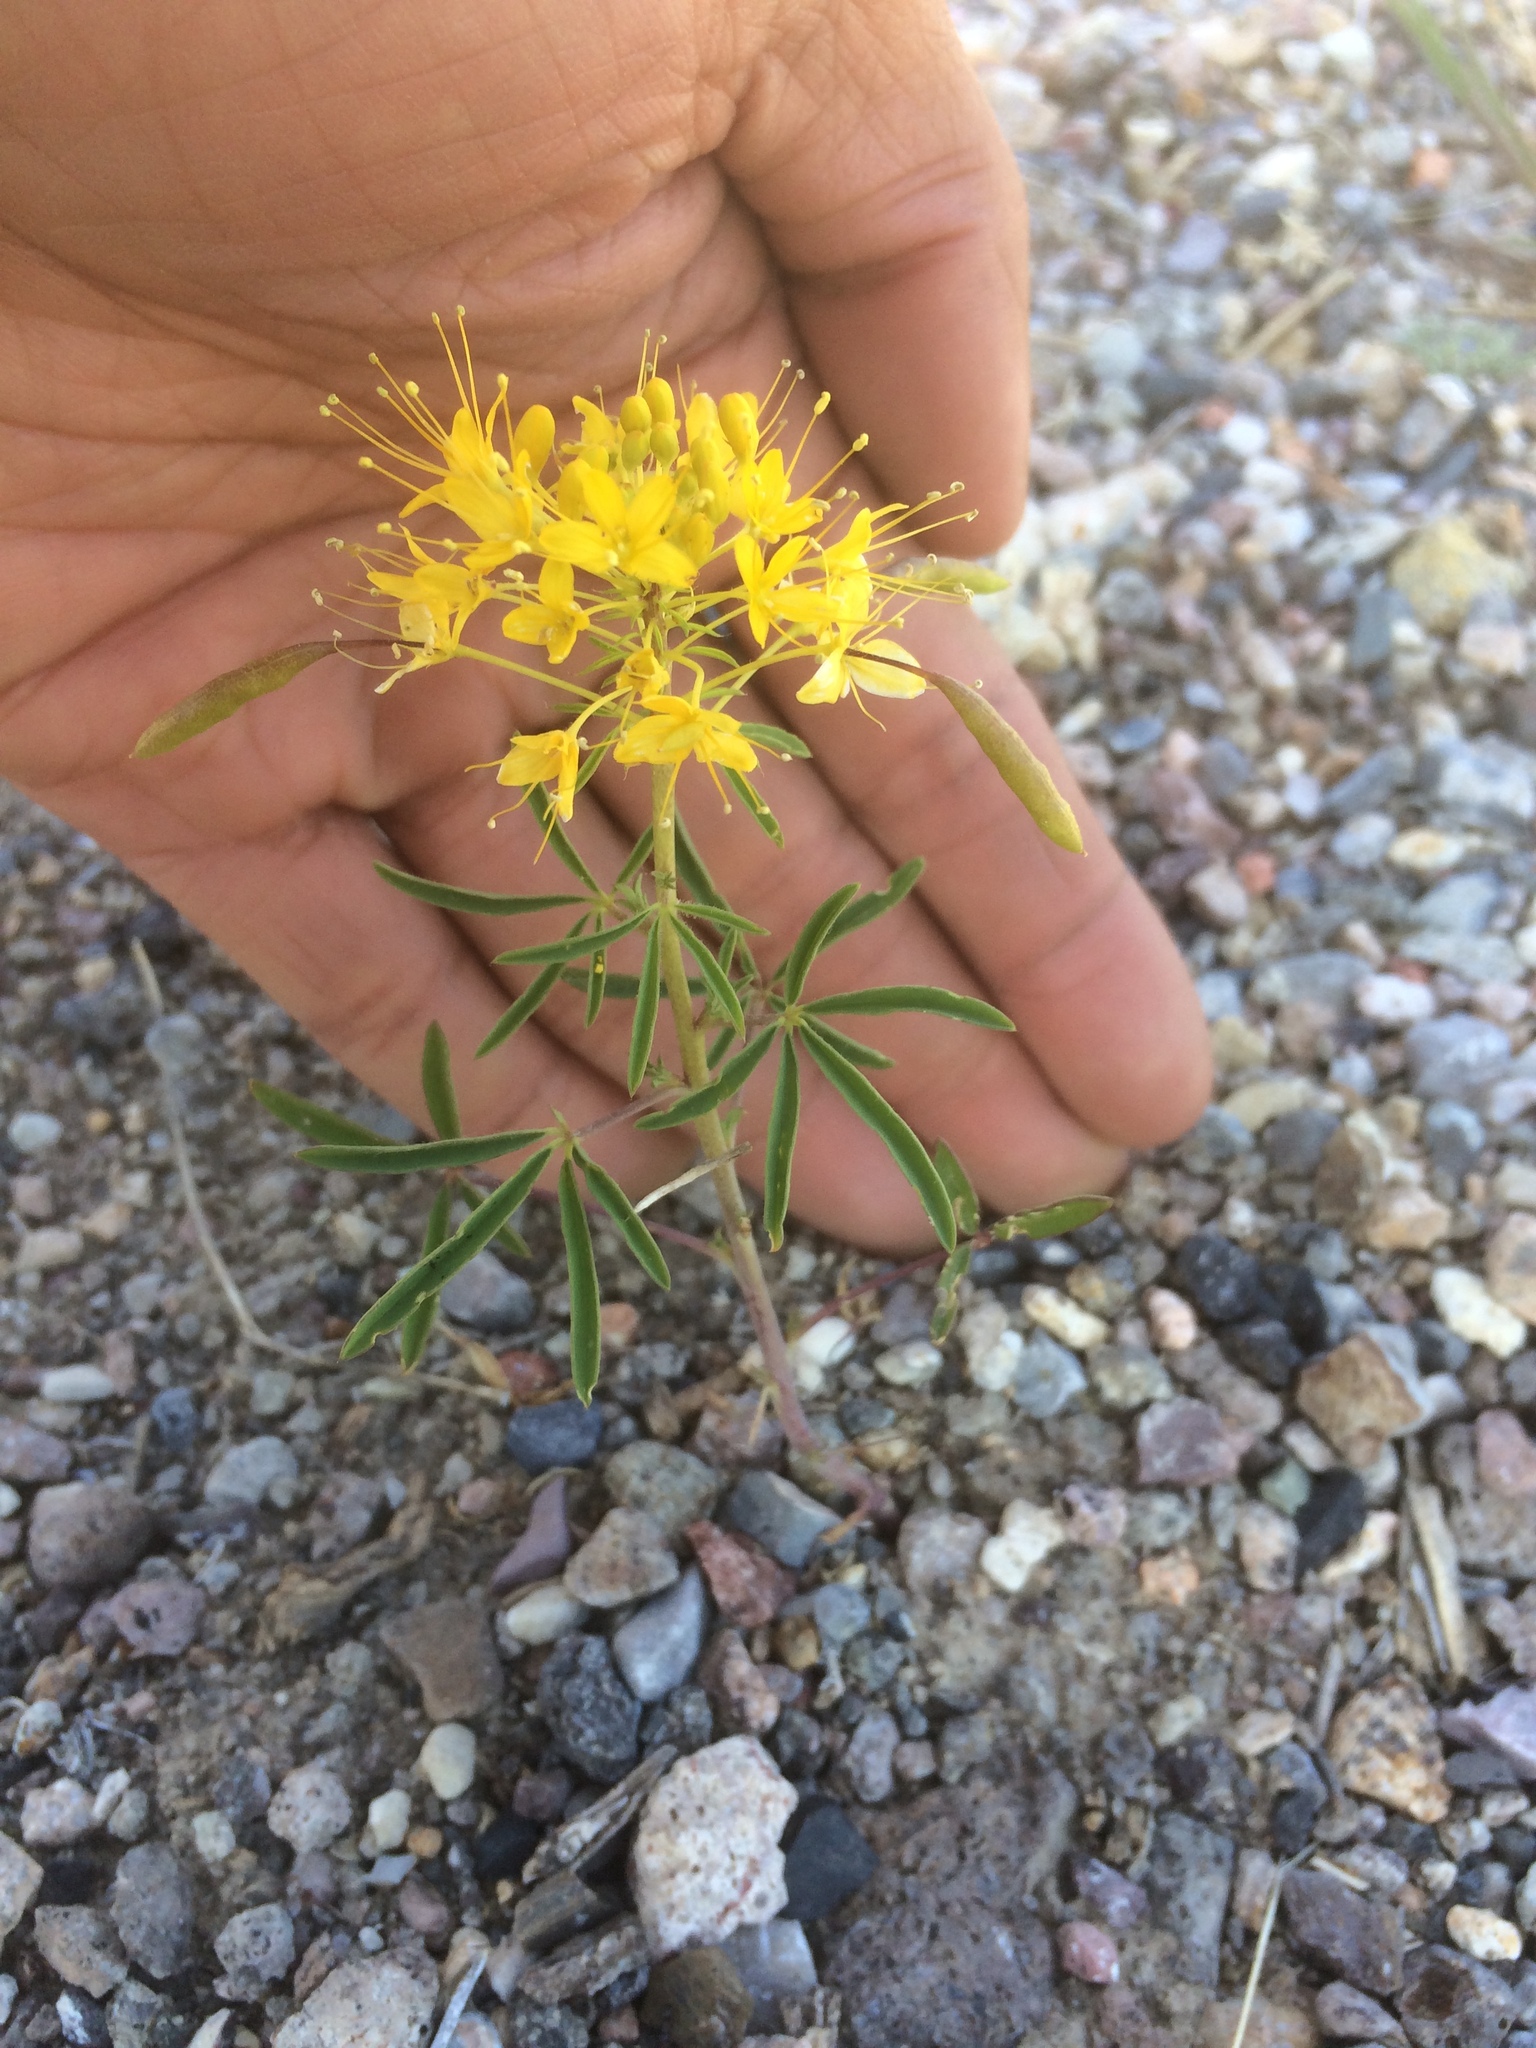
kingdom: Plantae
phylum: Tracheophyta
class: Magnoliopsida
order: Brassicales
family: Cleomaceae
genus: Cleomella
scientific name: Cleomella lutea
